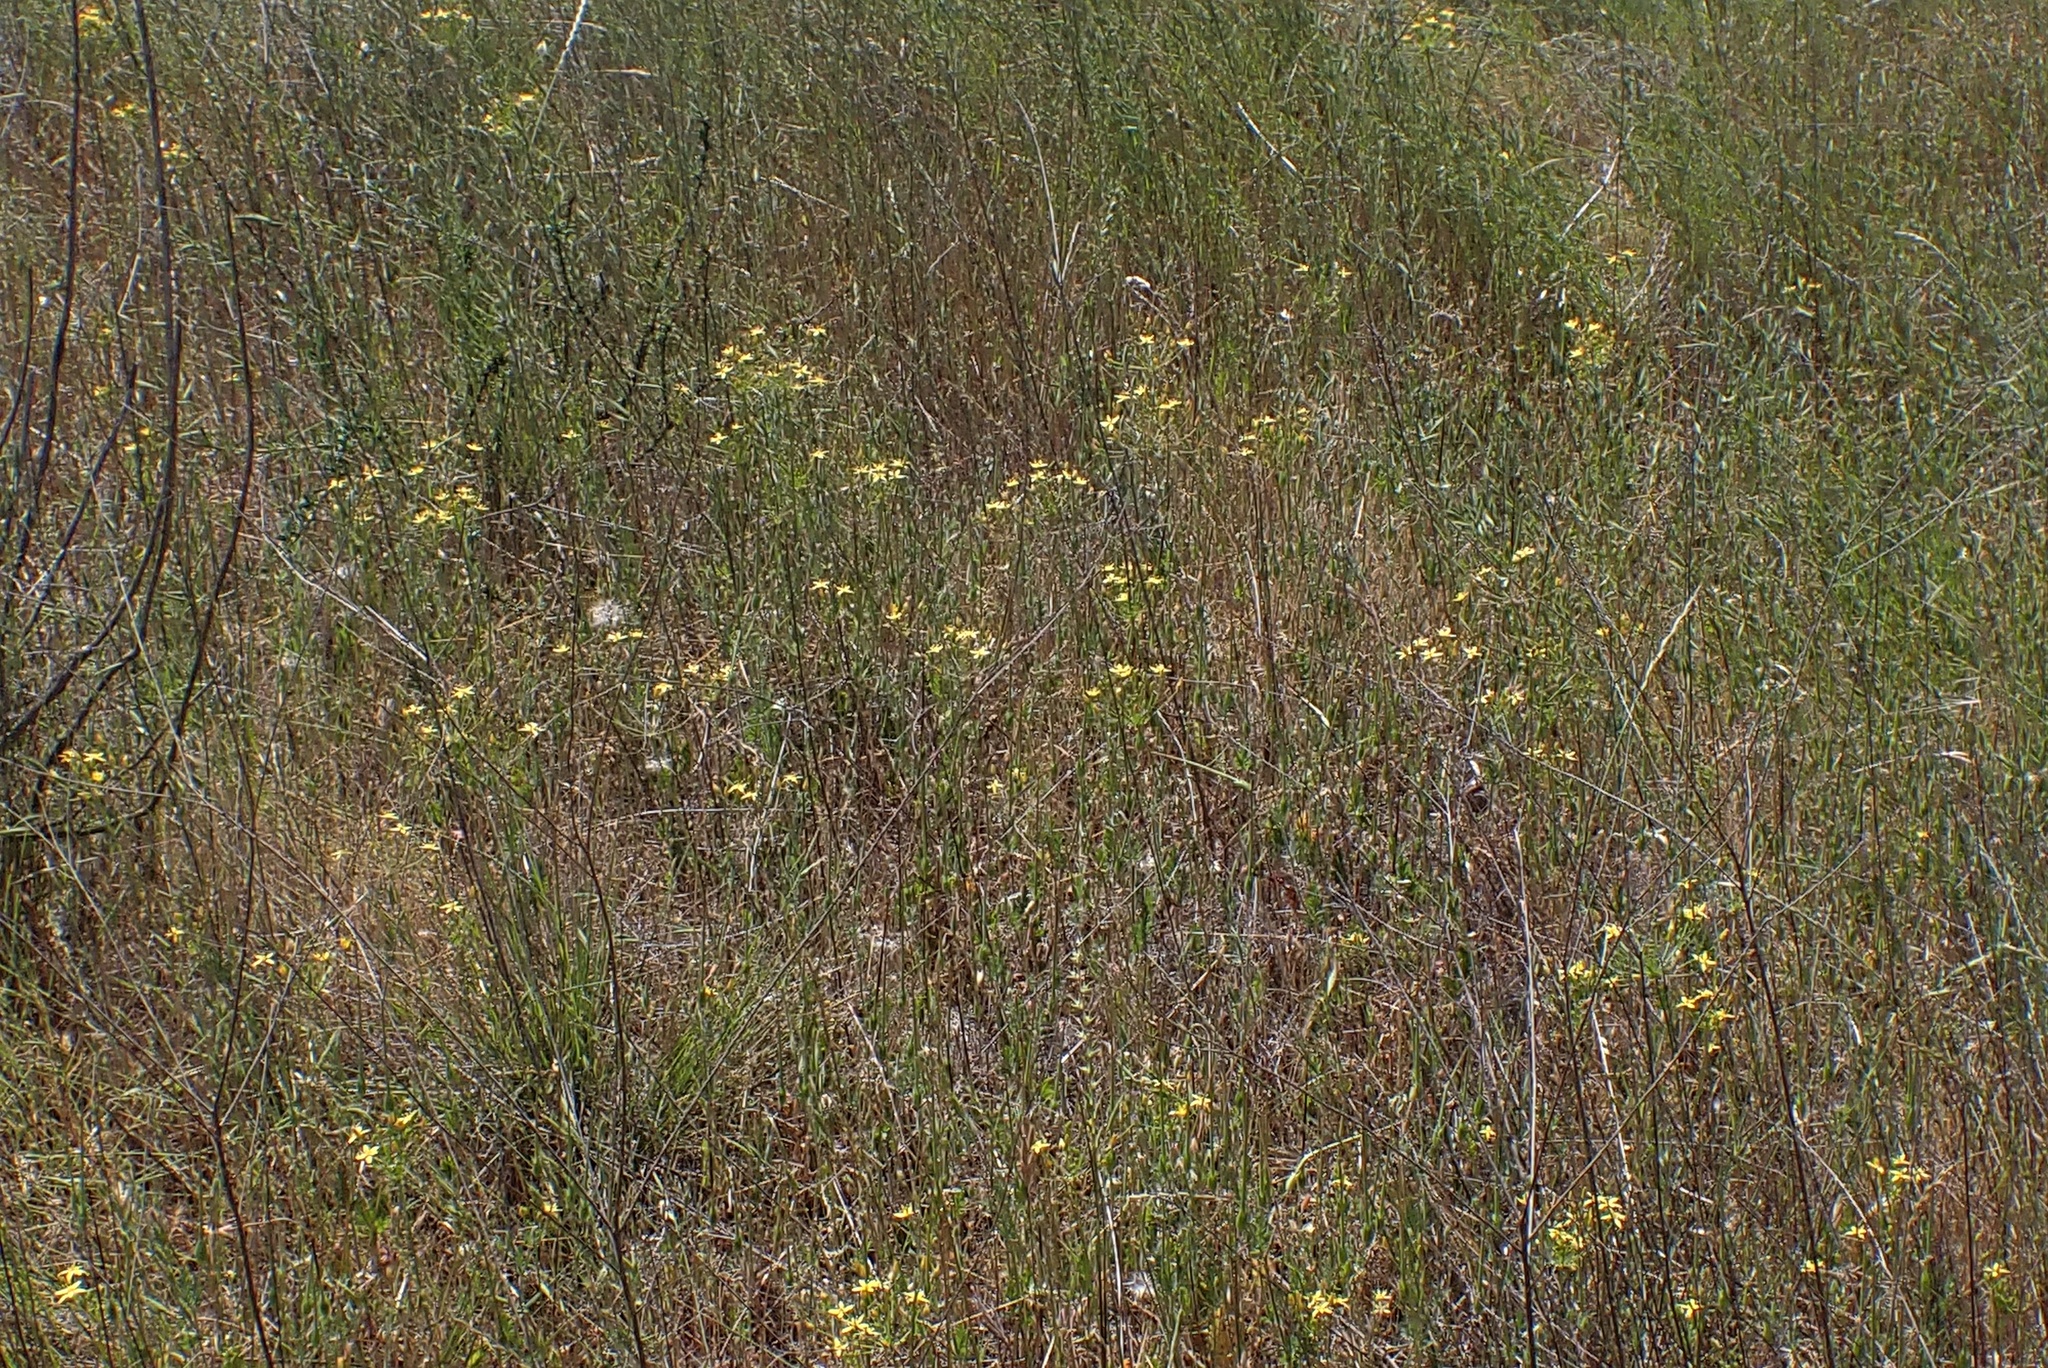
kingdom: Plantae
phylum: Tracheophyta
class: Liliopsida
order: Asparagales
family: Asparagaceae
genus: Bloomeria
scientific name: Bloomeria clevelandii
